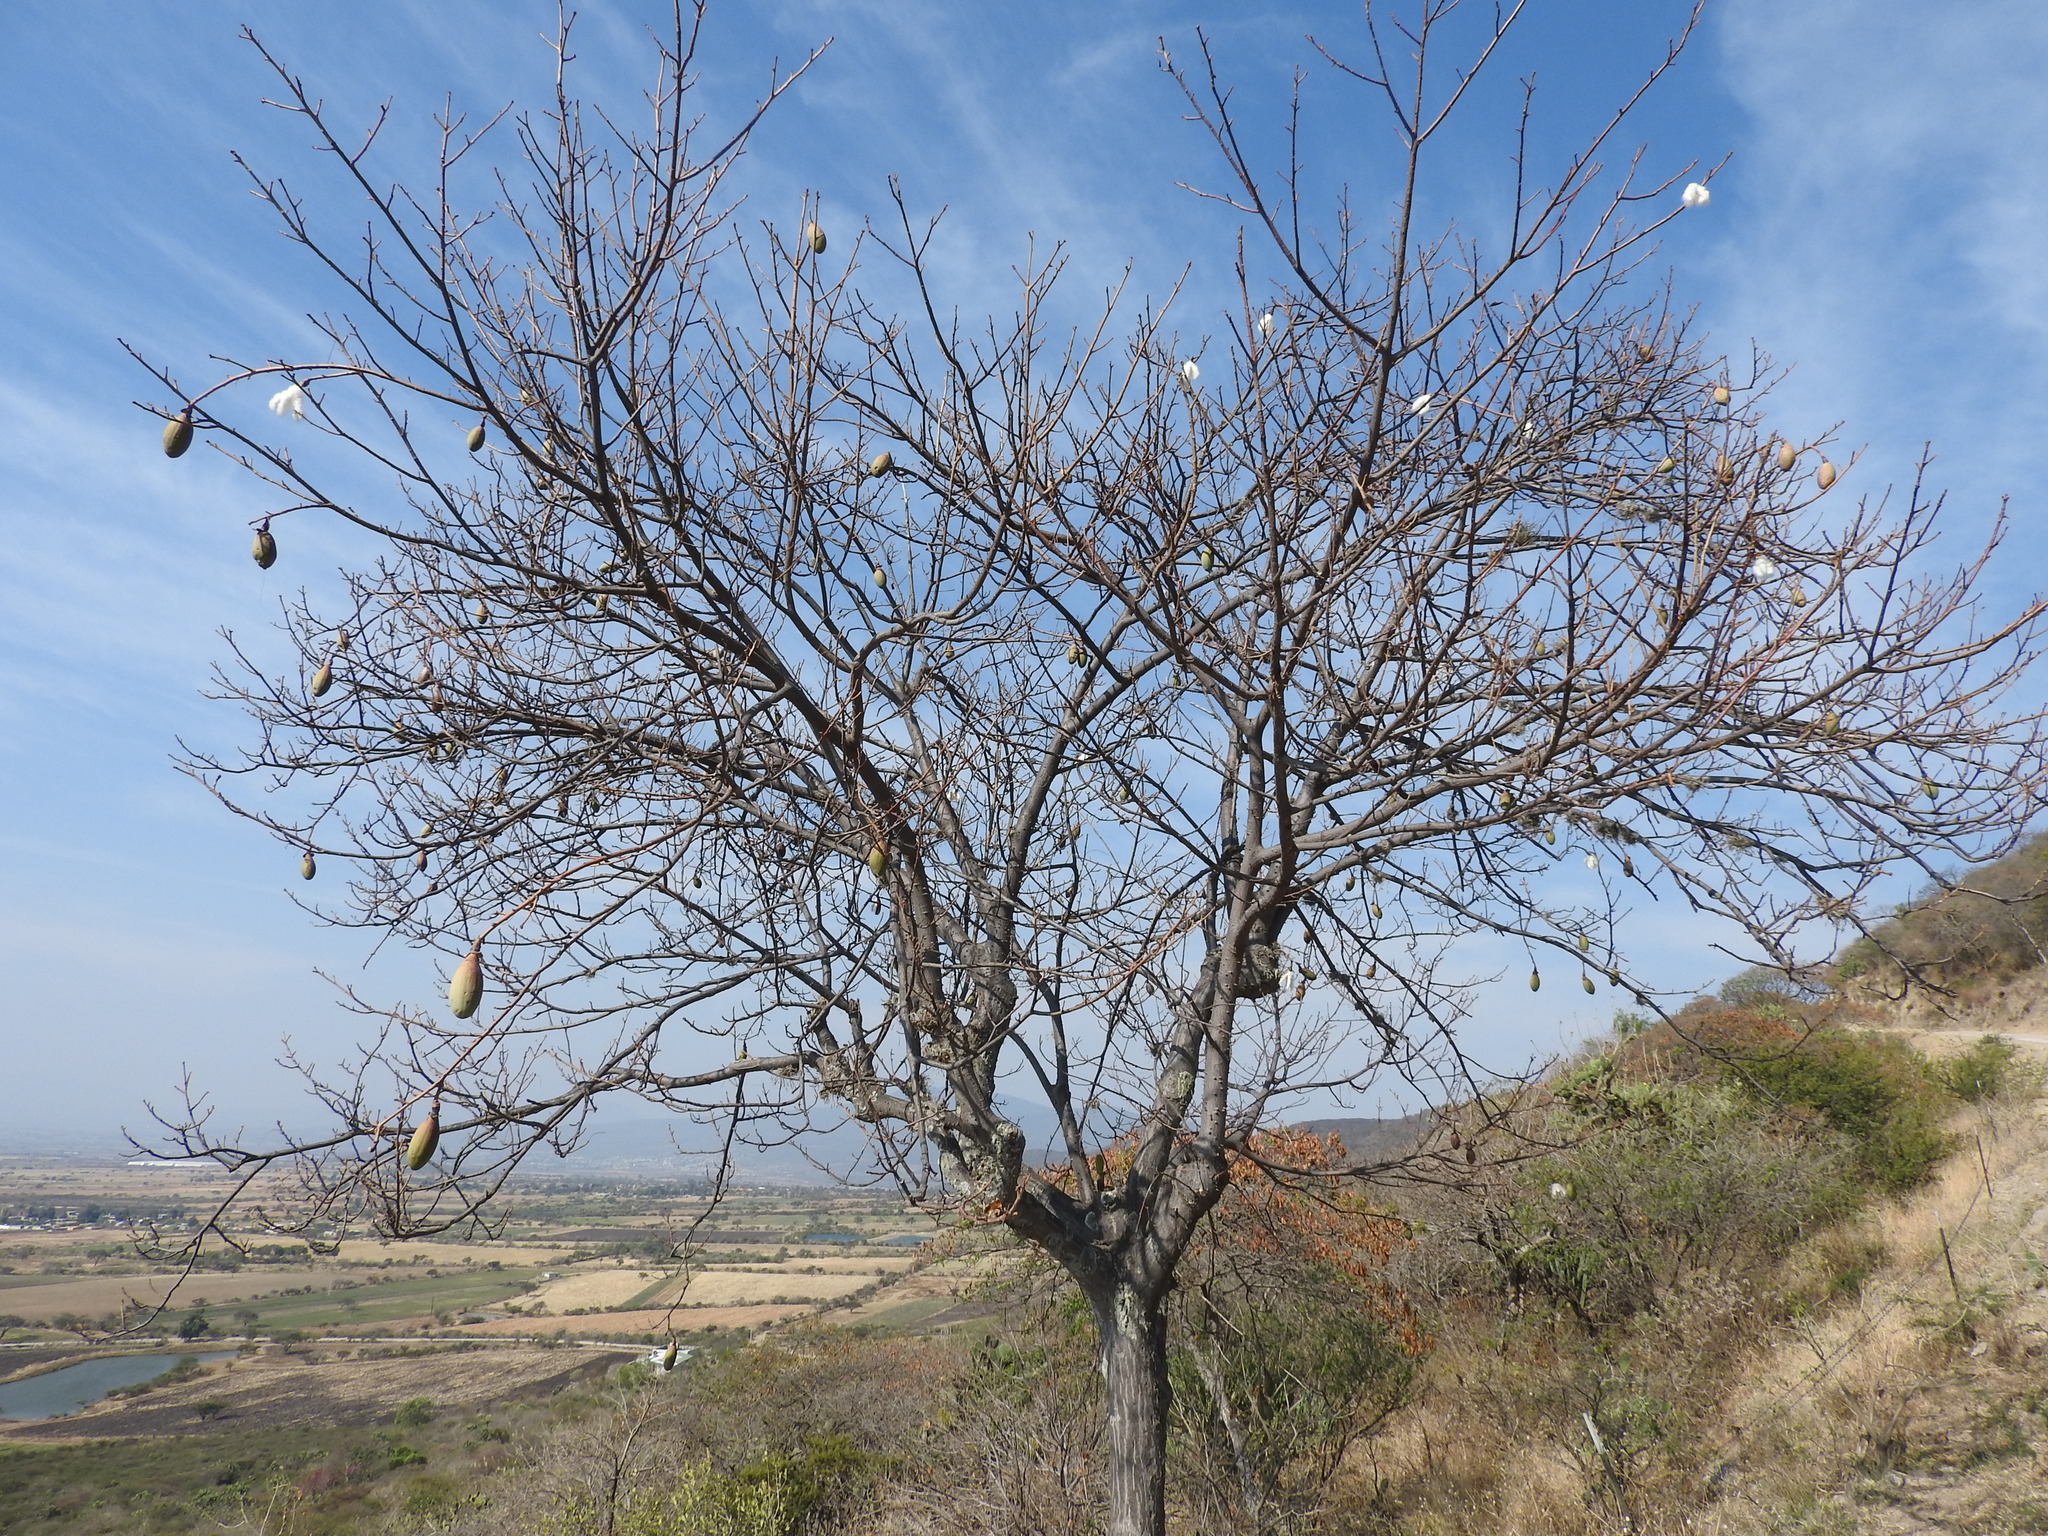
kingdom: Plantae
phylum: Tracheophyta
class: Magnoliopsida
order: Malvales
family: Malvaceae
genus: Ceiba
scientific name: Ceiba aesculifolia
